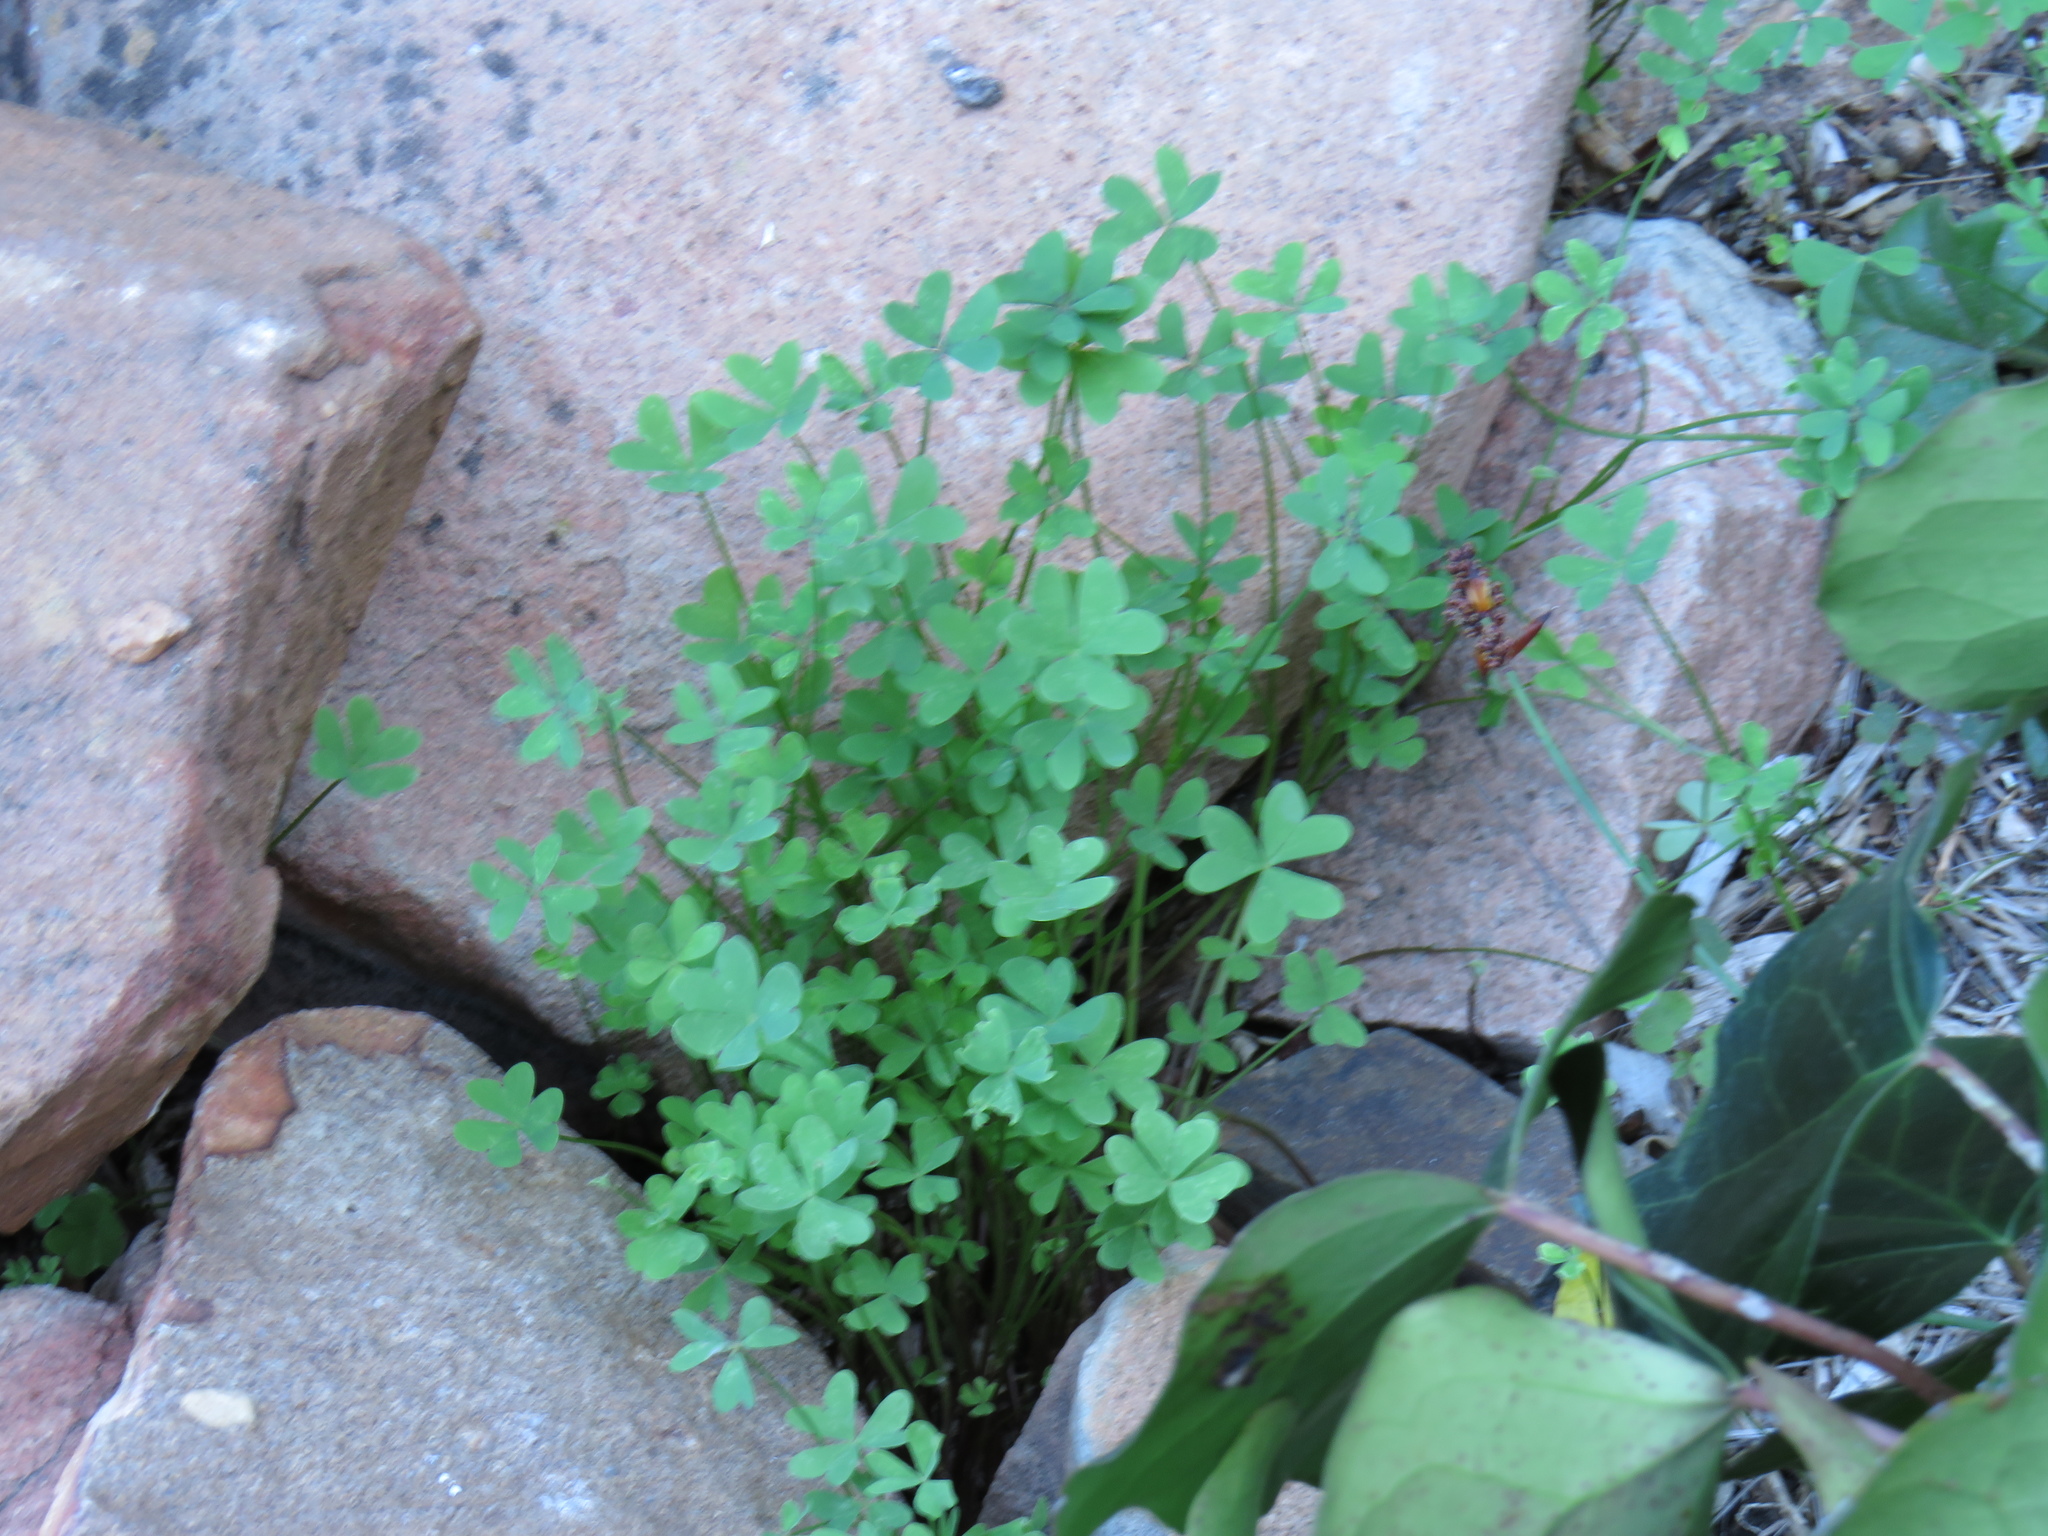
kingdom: Plantae
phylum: Tracheophyta
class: Magnoliopsida
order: Oxalidales
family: Oxalidaceae
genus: Oxalis
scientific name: Oxalis pes-caprae
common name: Bermuda-buttercup
